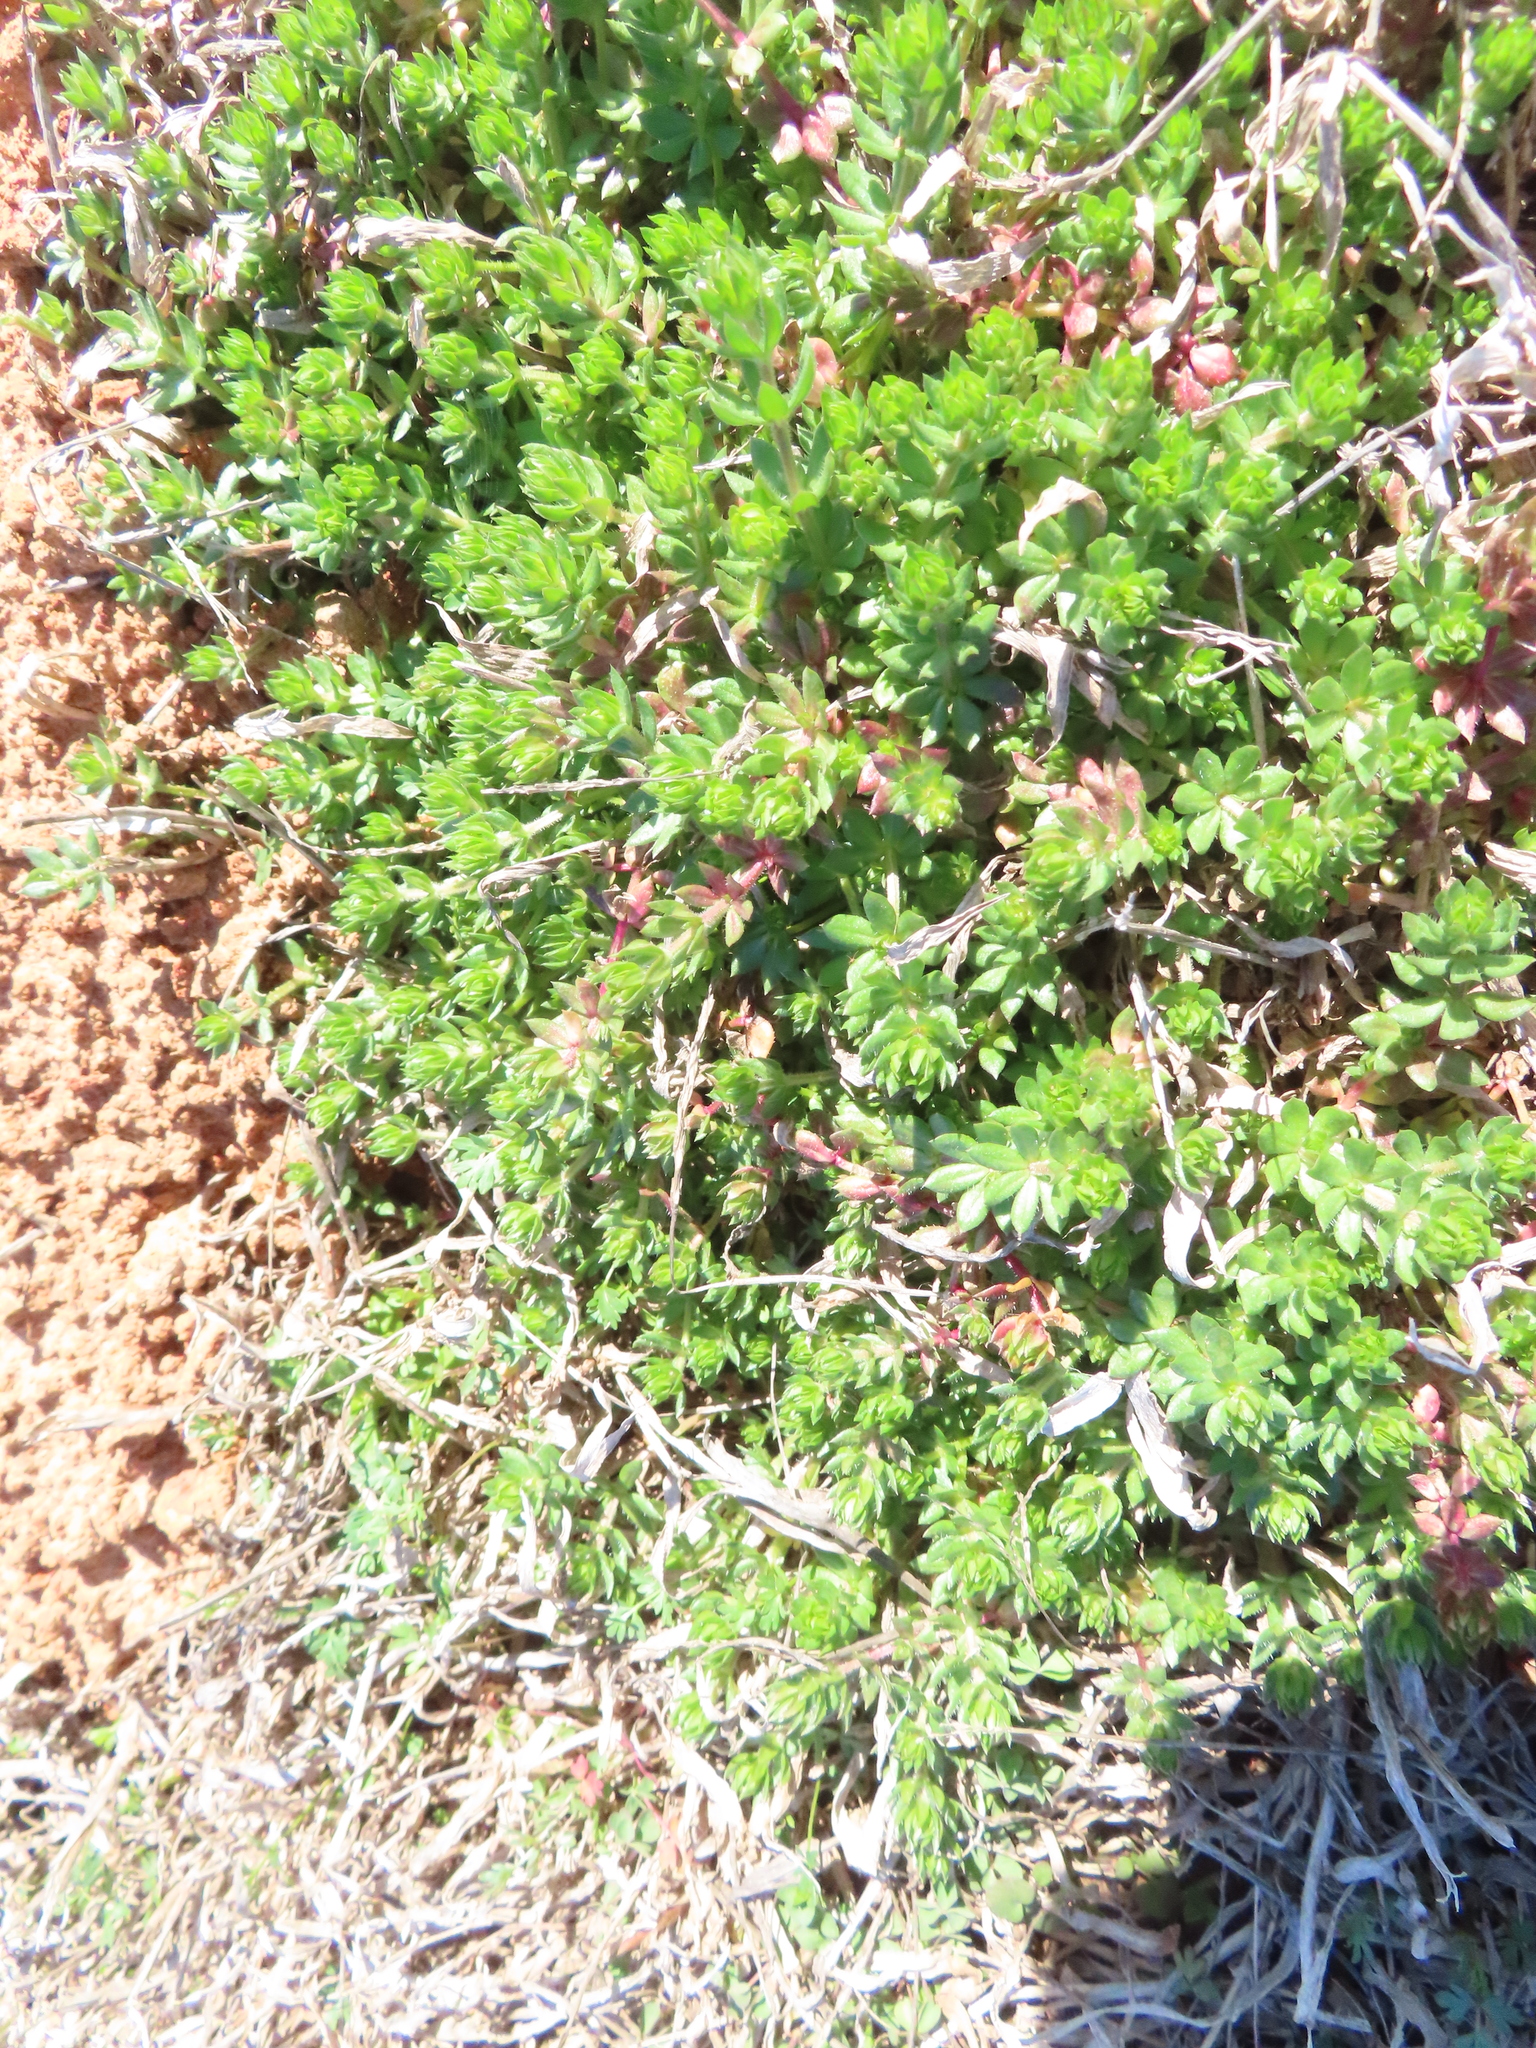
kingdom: Plantae
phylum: Tracheophyta
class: Magnoliopsida
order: Gentianales
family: Rubiaceae
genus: Sherardia
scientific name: Sherardia arvensis
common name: Field madder
